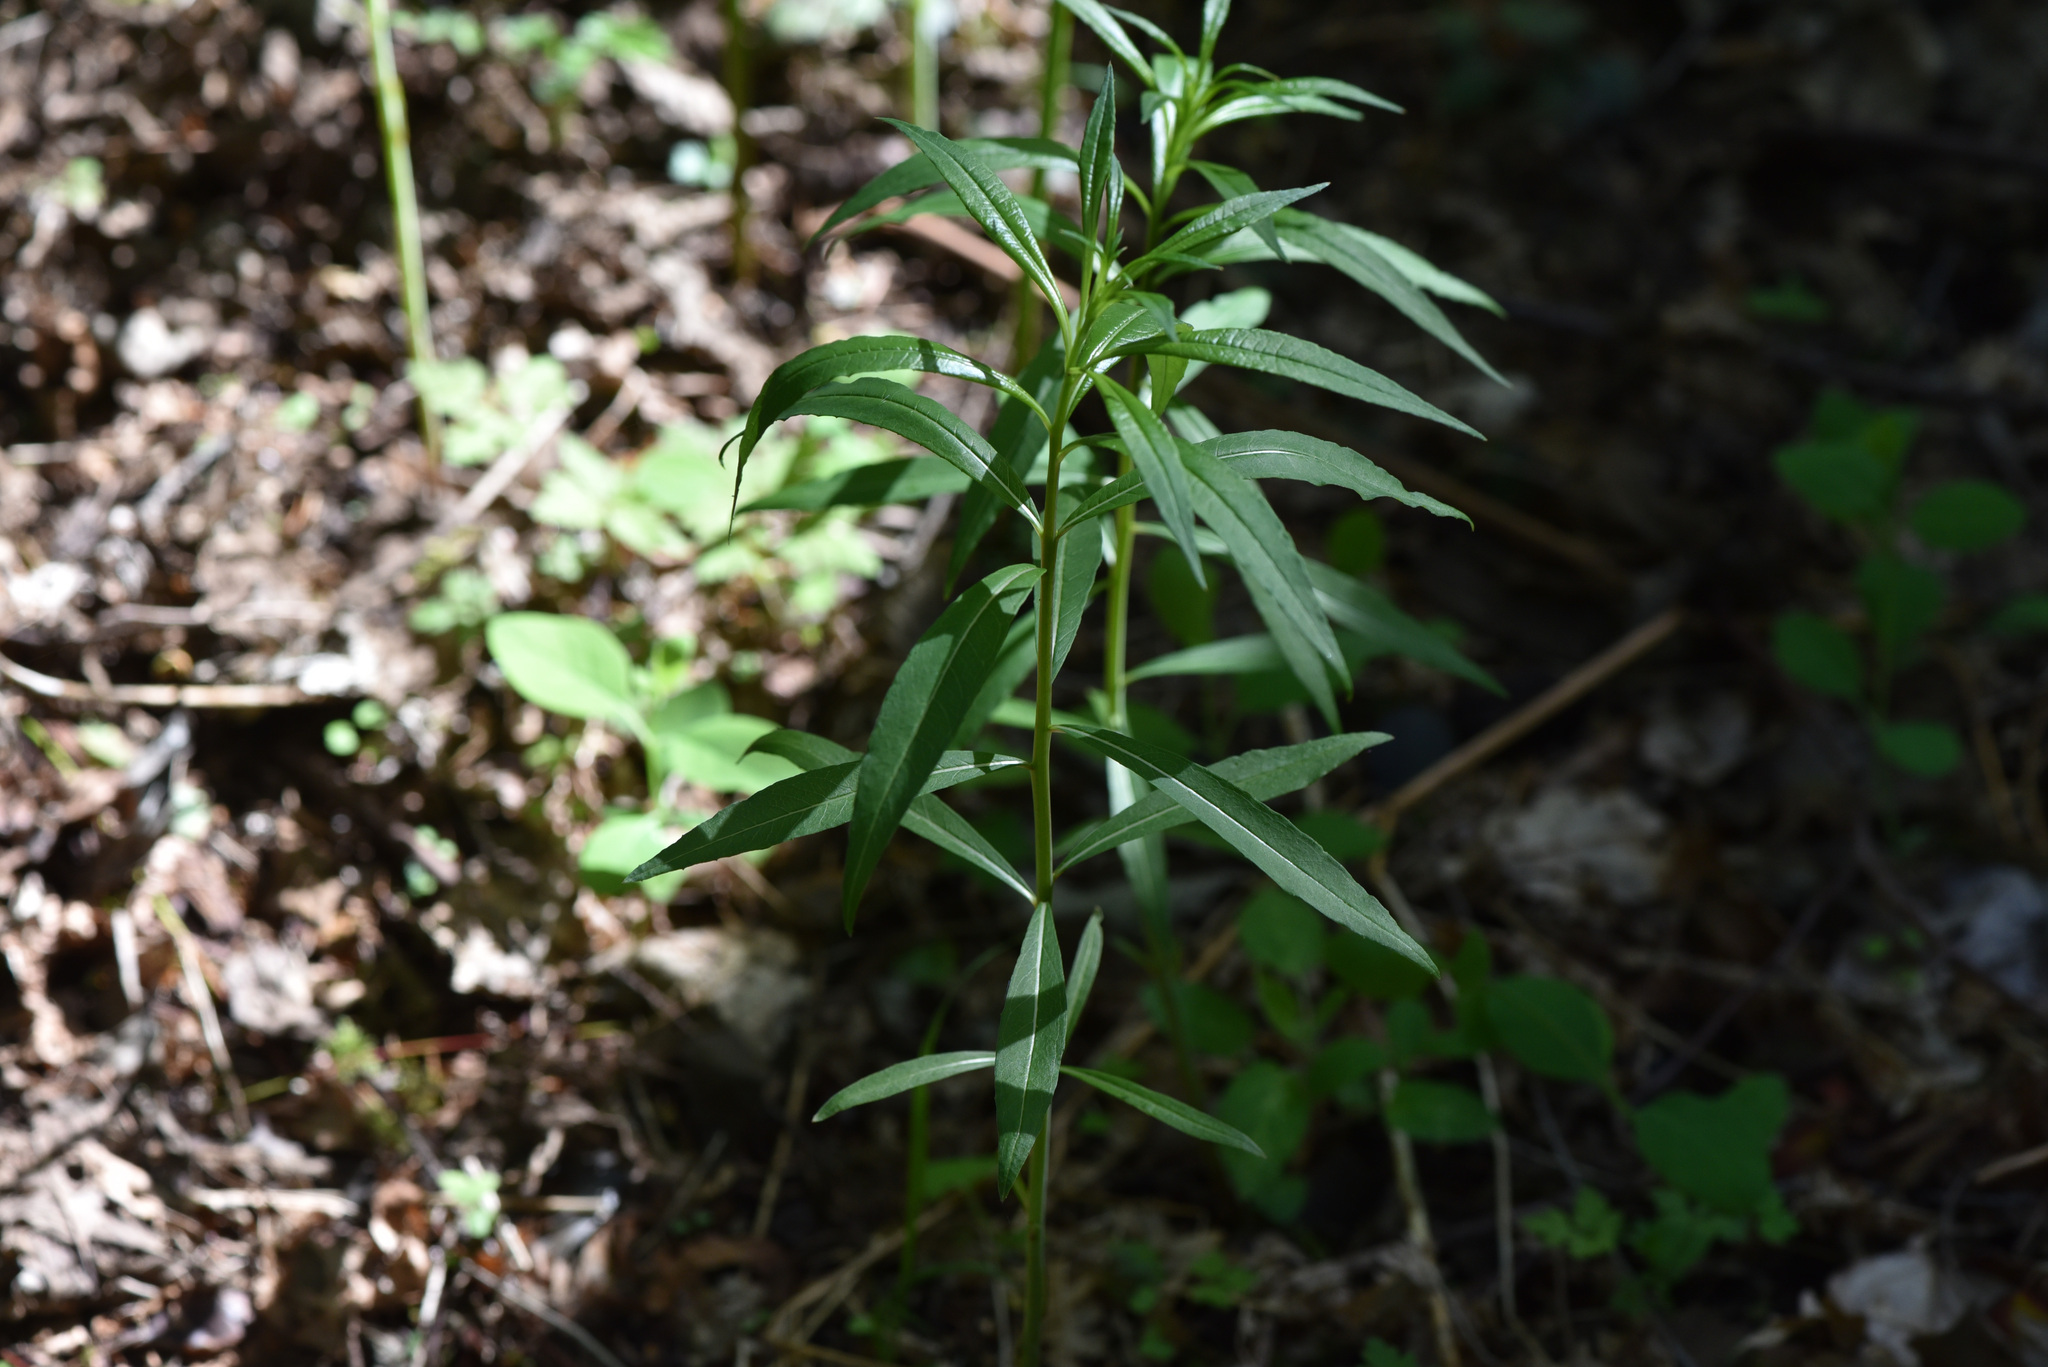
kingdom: Plantae
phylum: Tracheophyta
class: Magnoliopsida
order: Myrtales
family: Onagraceae
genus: Chamaenerion
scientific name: Chamaenerion angustifolium
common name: Fireweed
